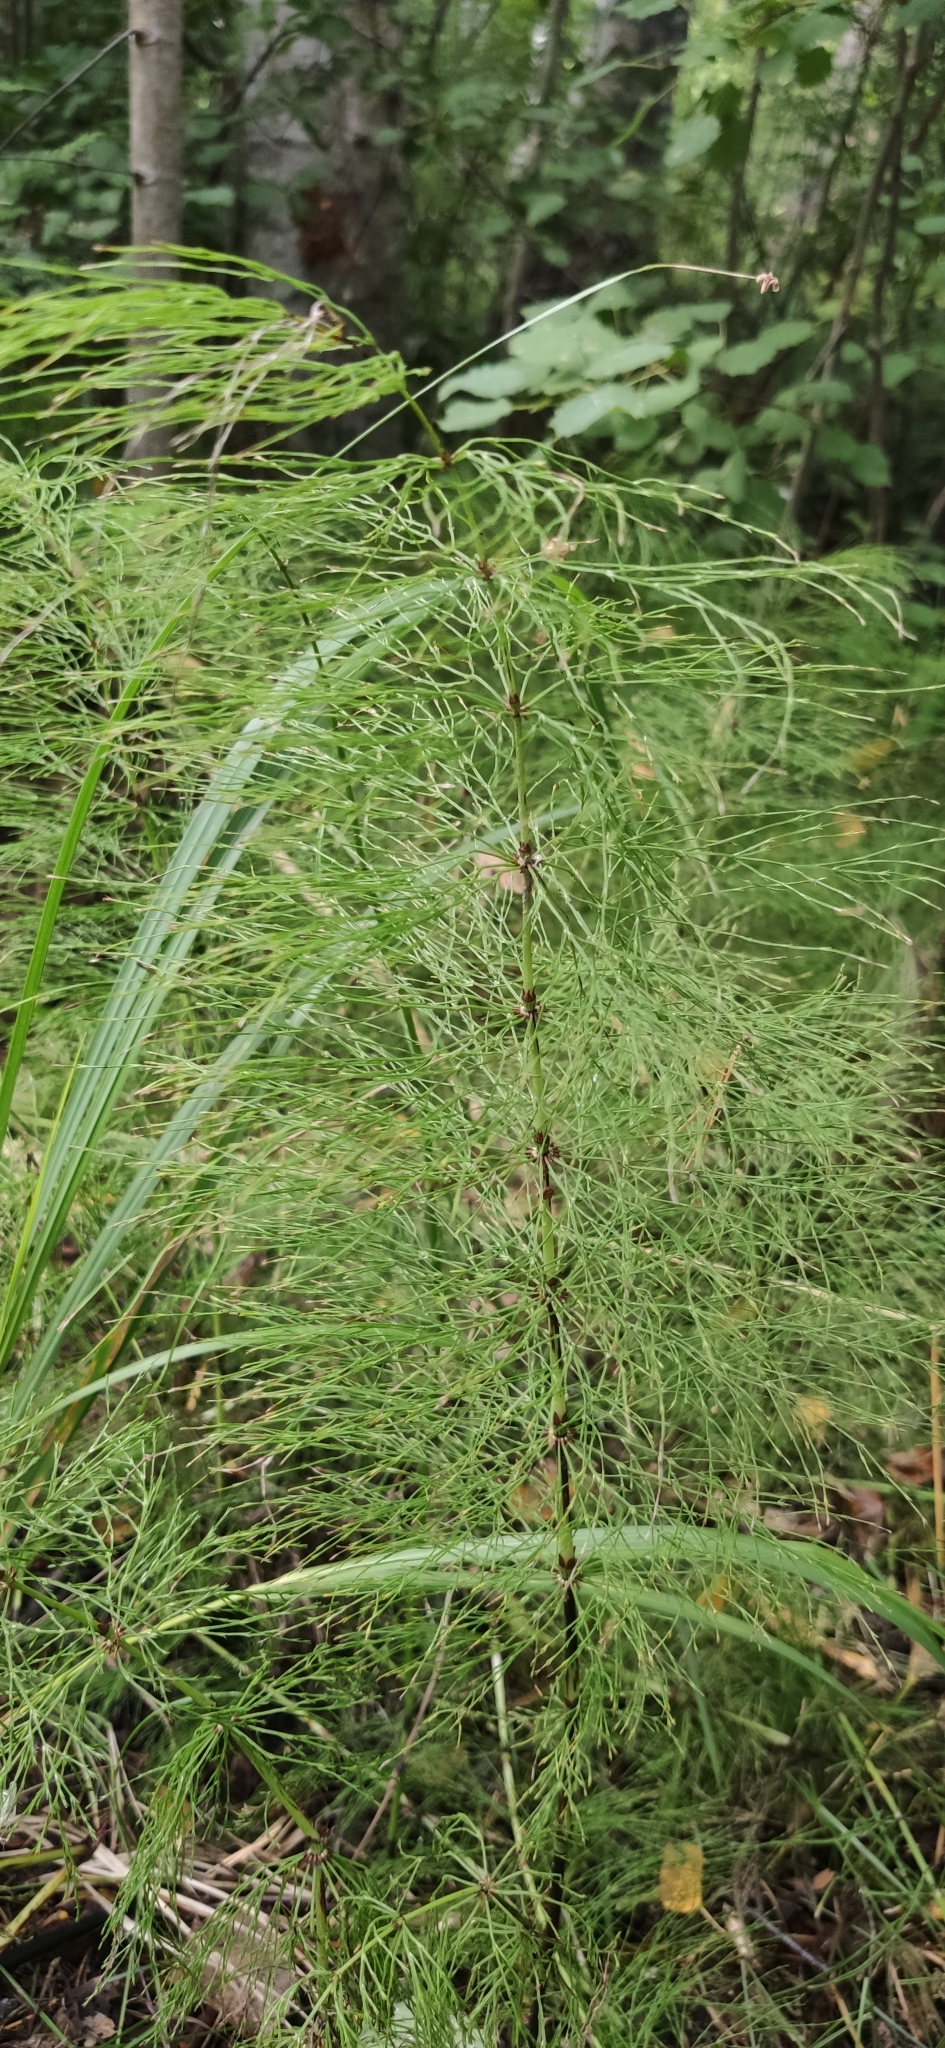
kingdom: Plantae
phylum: Tracheophyta
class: Polypodiopsida
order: Equisetales
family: Equisetaceae
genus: Equisetum
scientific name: Equisetum sylvaticum
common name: Wood horsetail
